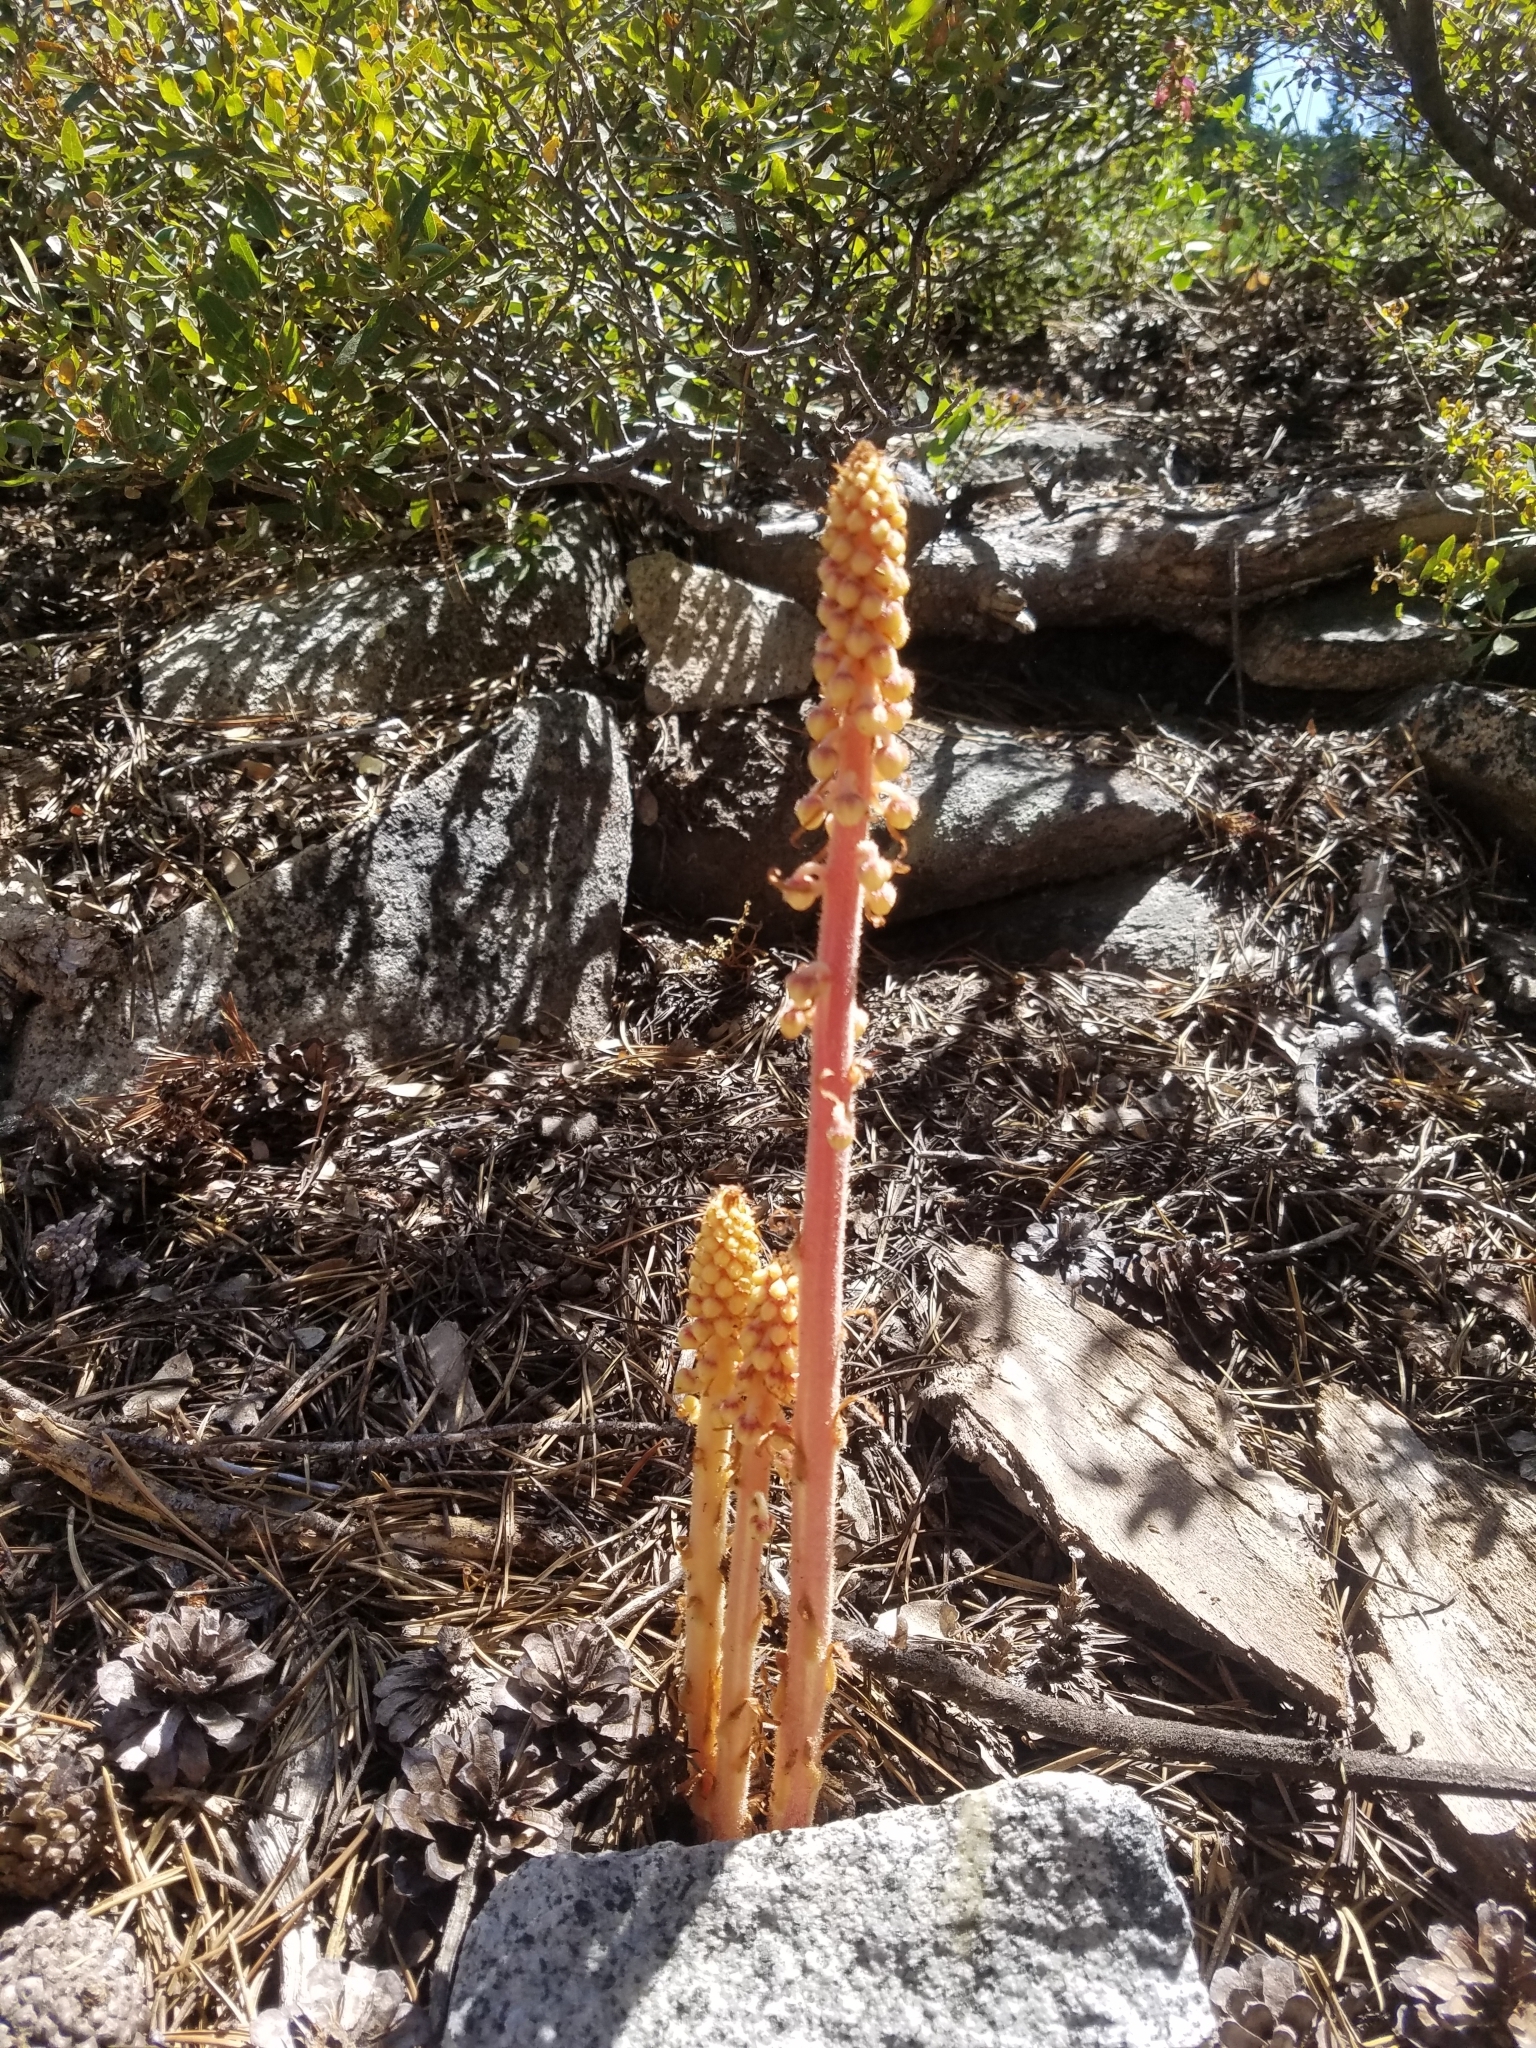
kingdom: Plantae
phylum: Tracheophyta
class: Magnoliopsida
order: Ericales
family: Ericaceae
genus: Pterospora
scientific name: Pterospora andromedea
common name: Giant bird's-nest
